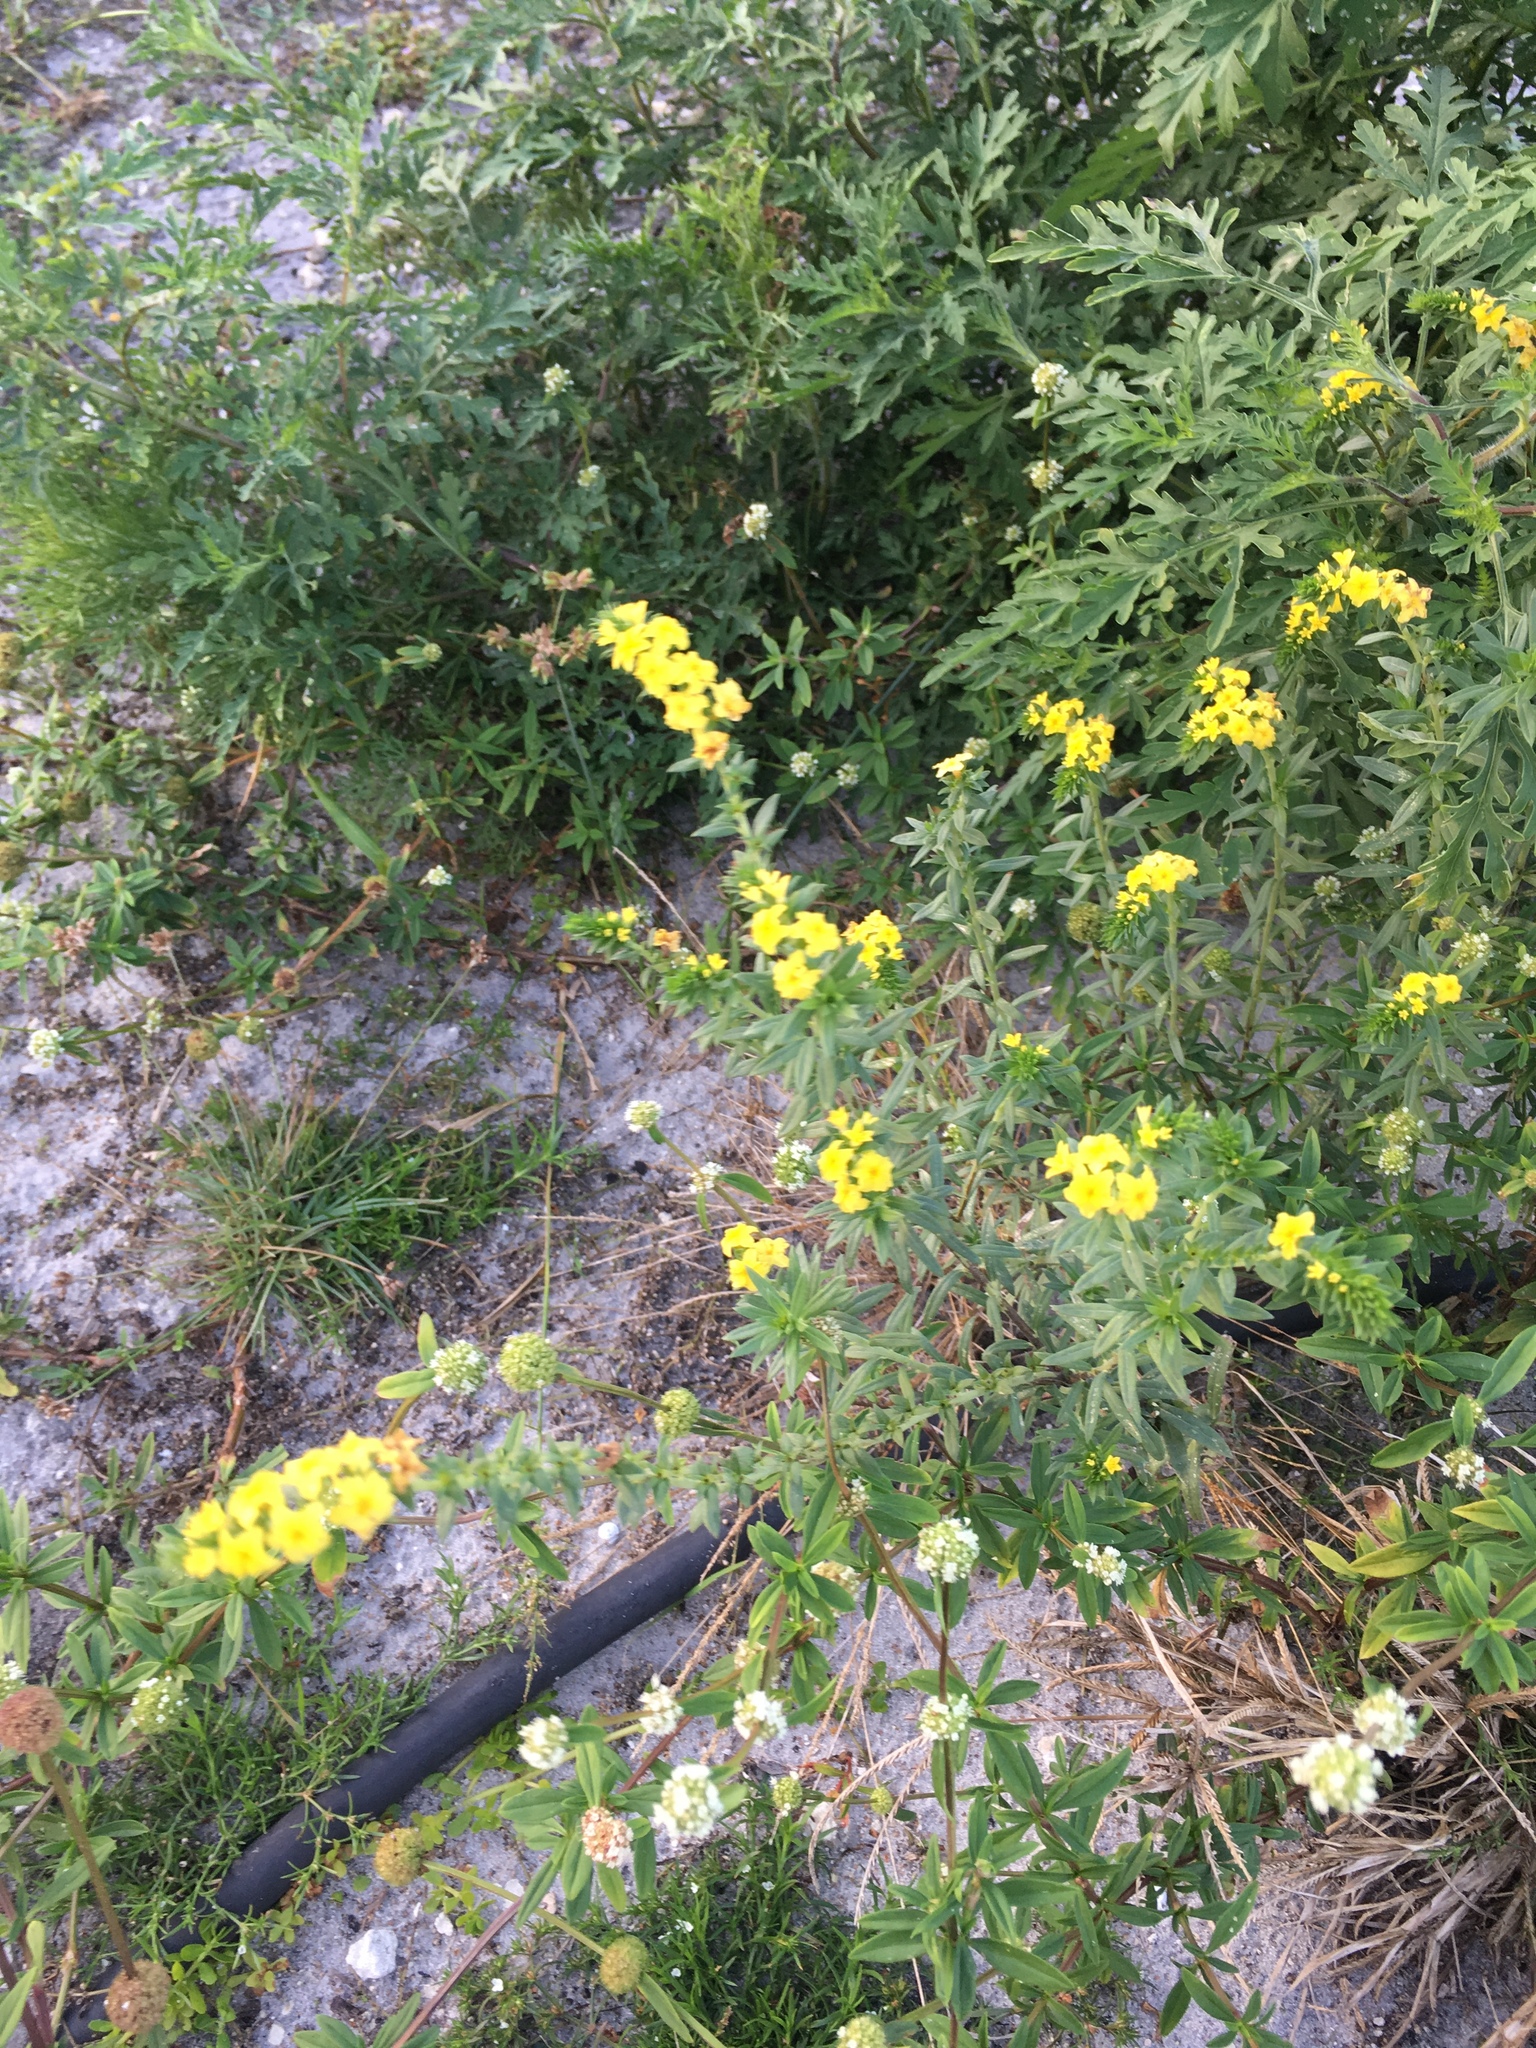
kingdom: Plantae
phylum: Tracheophyta
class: Magnoliopsida
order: Boraginales
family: Heliotropiaceae
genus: Euploca
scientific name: Euploca polyphylla
